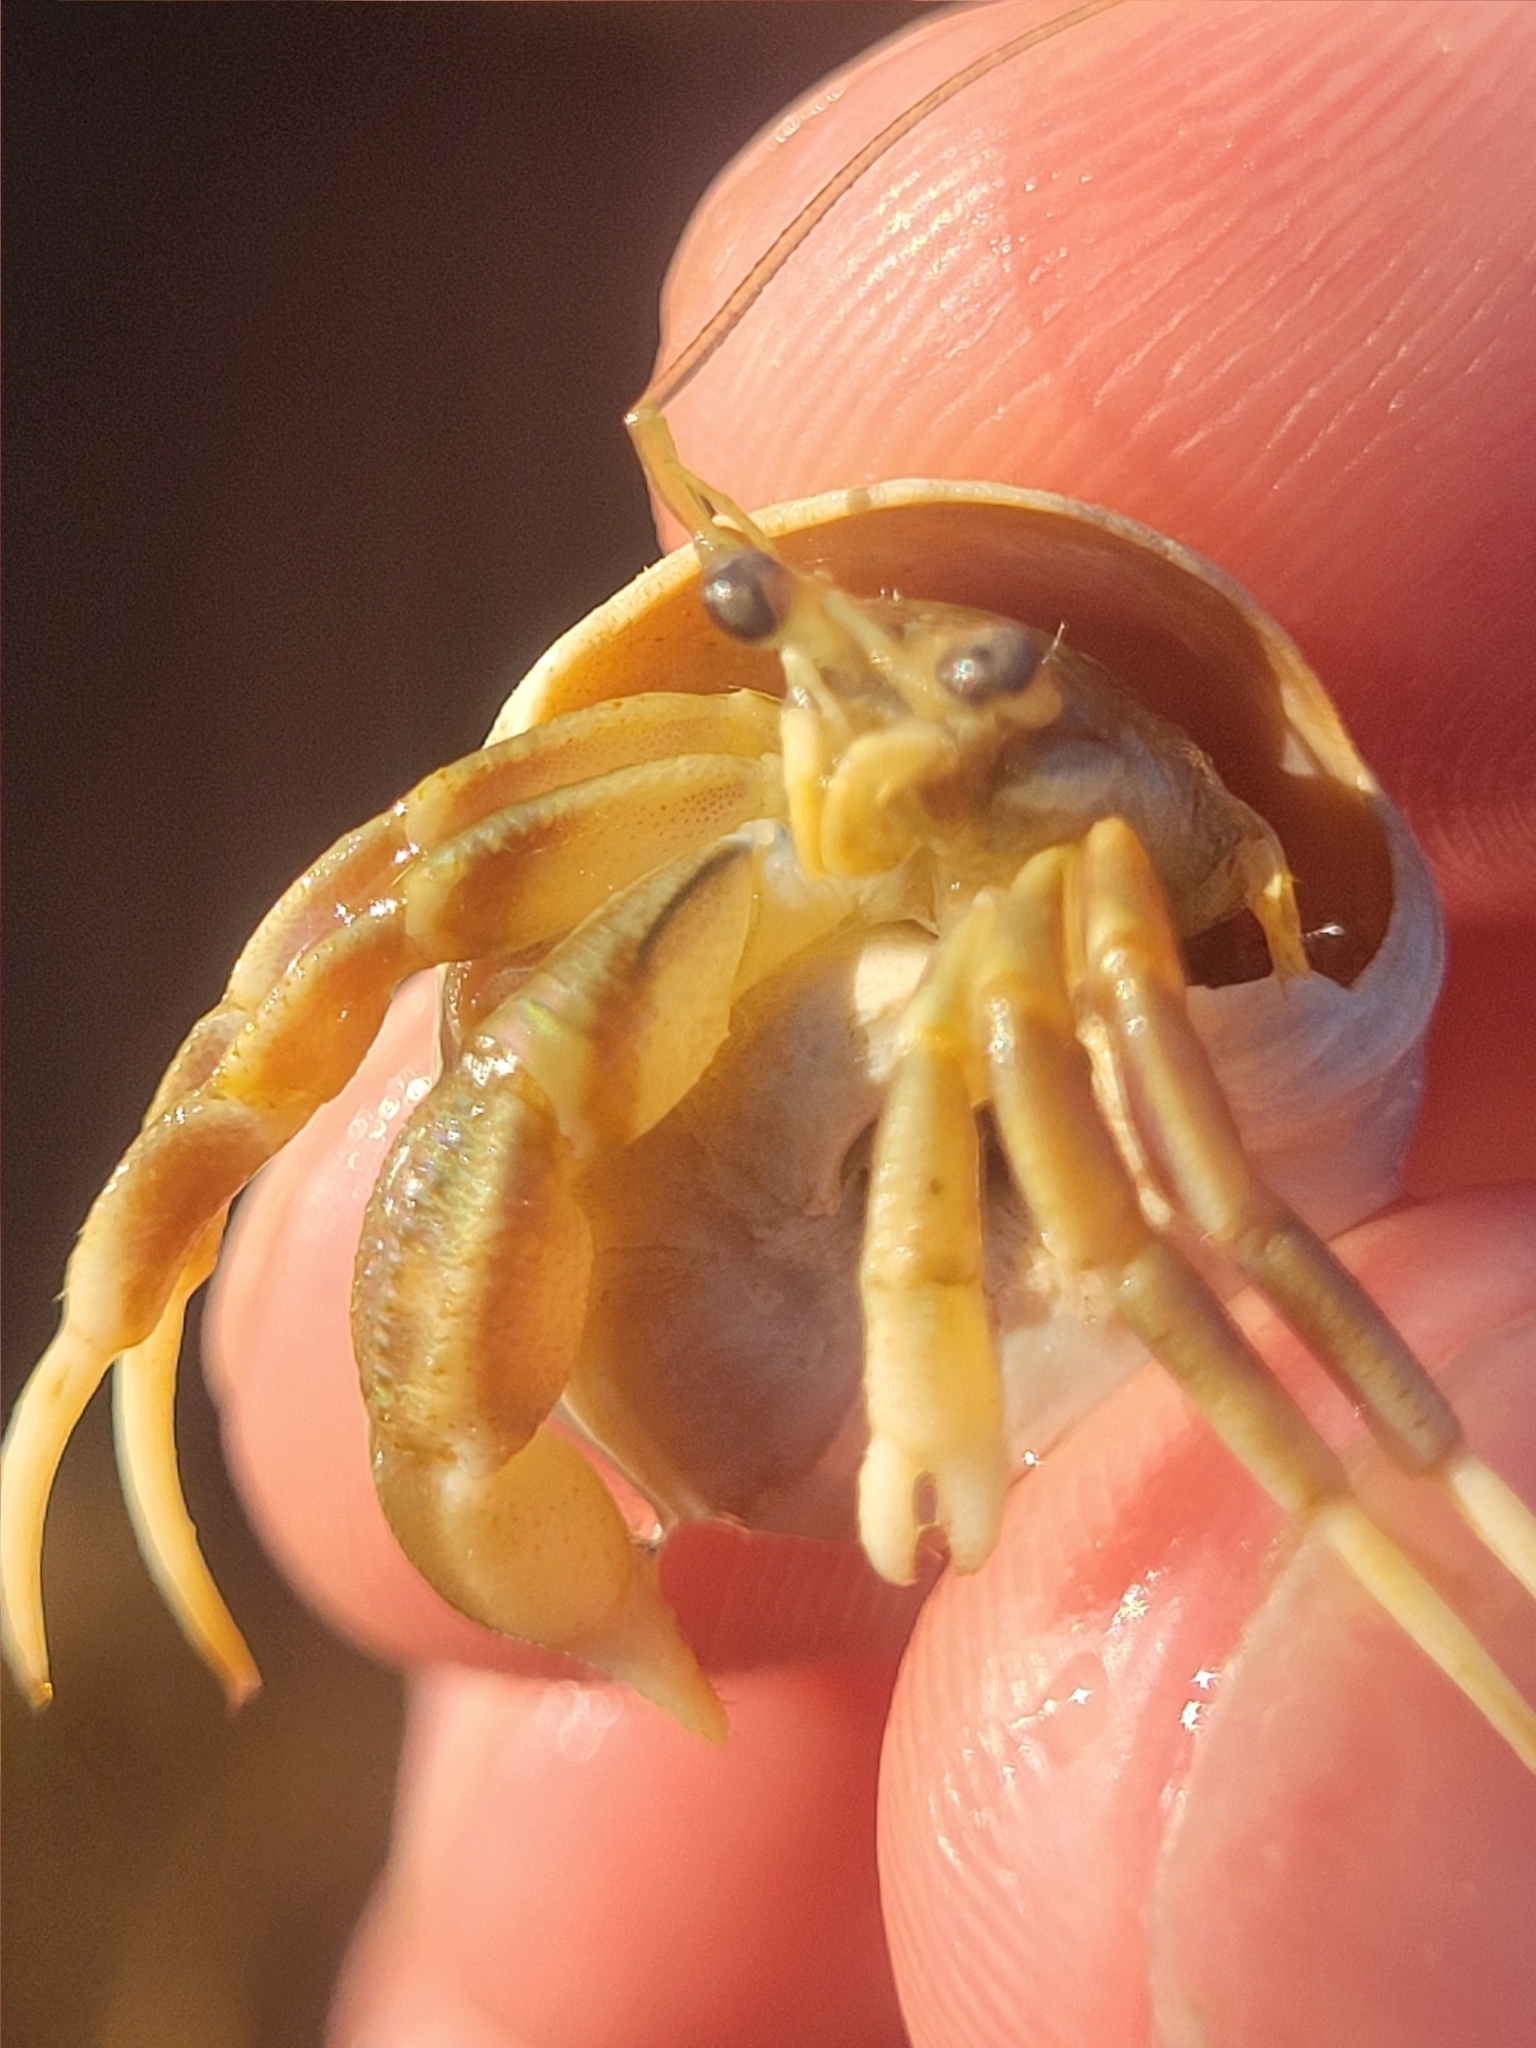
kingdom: Animalia
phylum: Arthropoda
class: Malacostraca
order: Decapoda
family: Paguridae
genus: Pagurus
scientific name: Pagurus longicarpus
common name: Long-armed hermit crab
